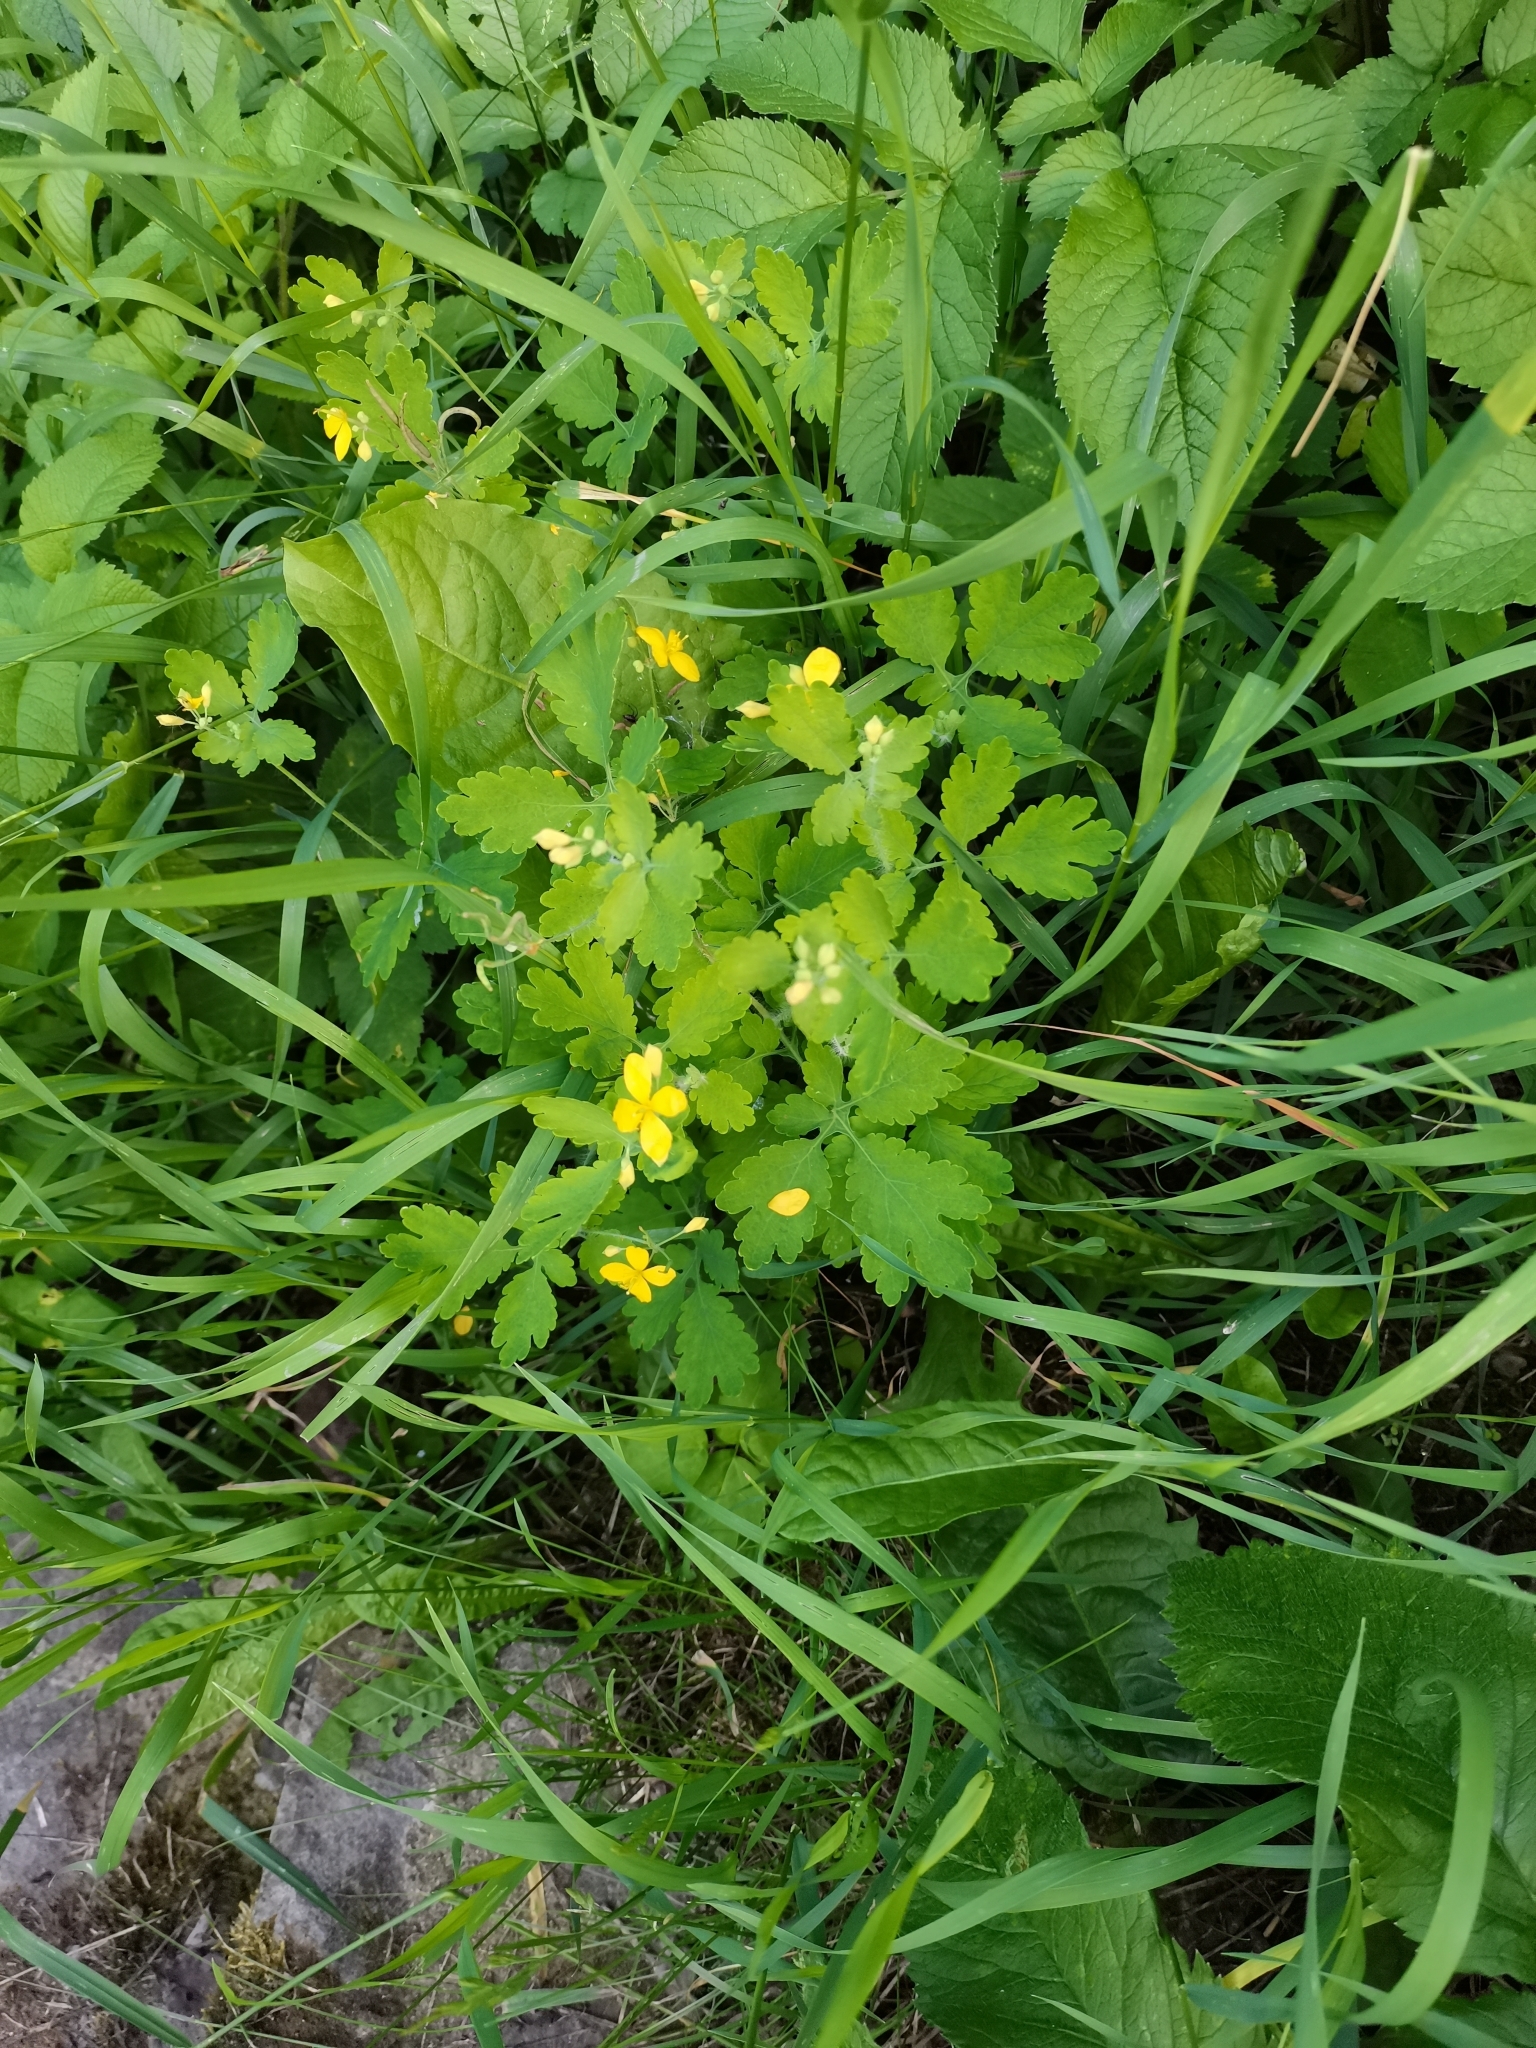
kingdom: Plantae
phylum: Tracheophyta
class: Magnoliopsida
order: Ranunculales
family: Papaveraceae
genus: Chelidonium
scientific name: Chelidonium majus
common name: Greater celandine
